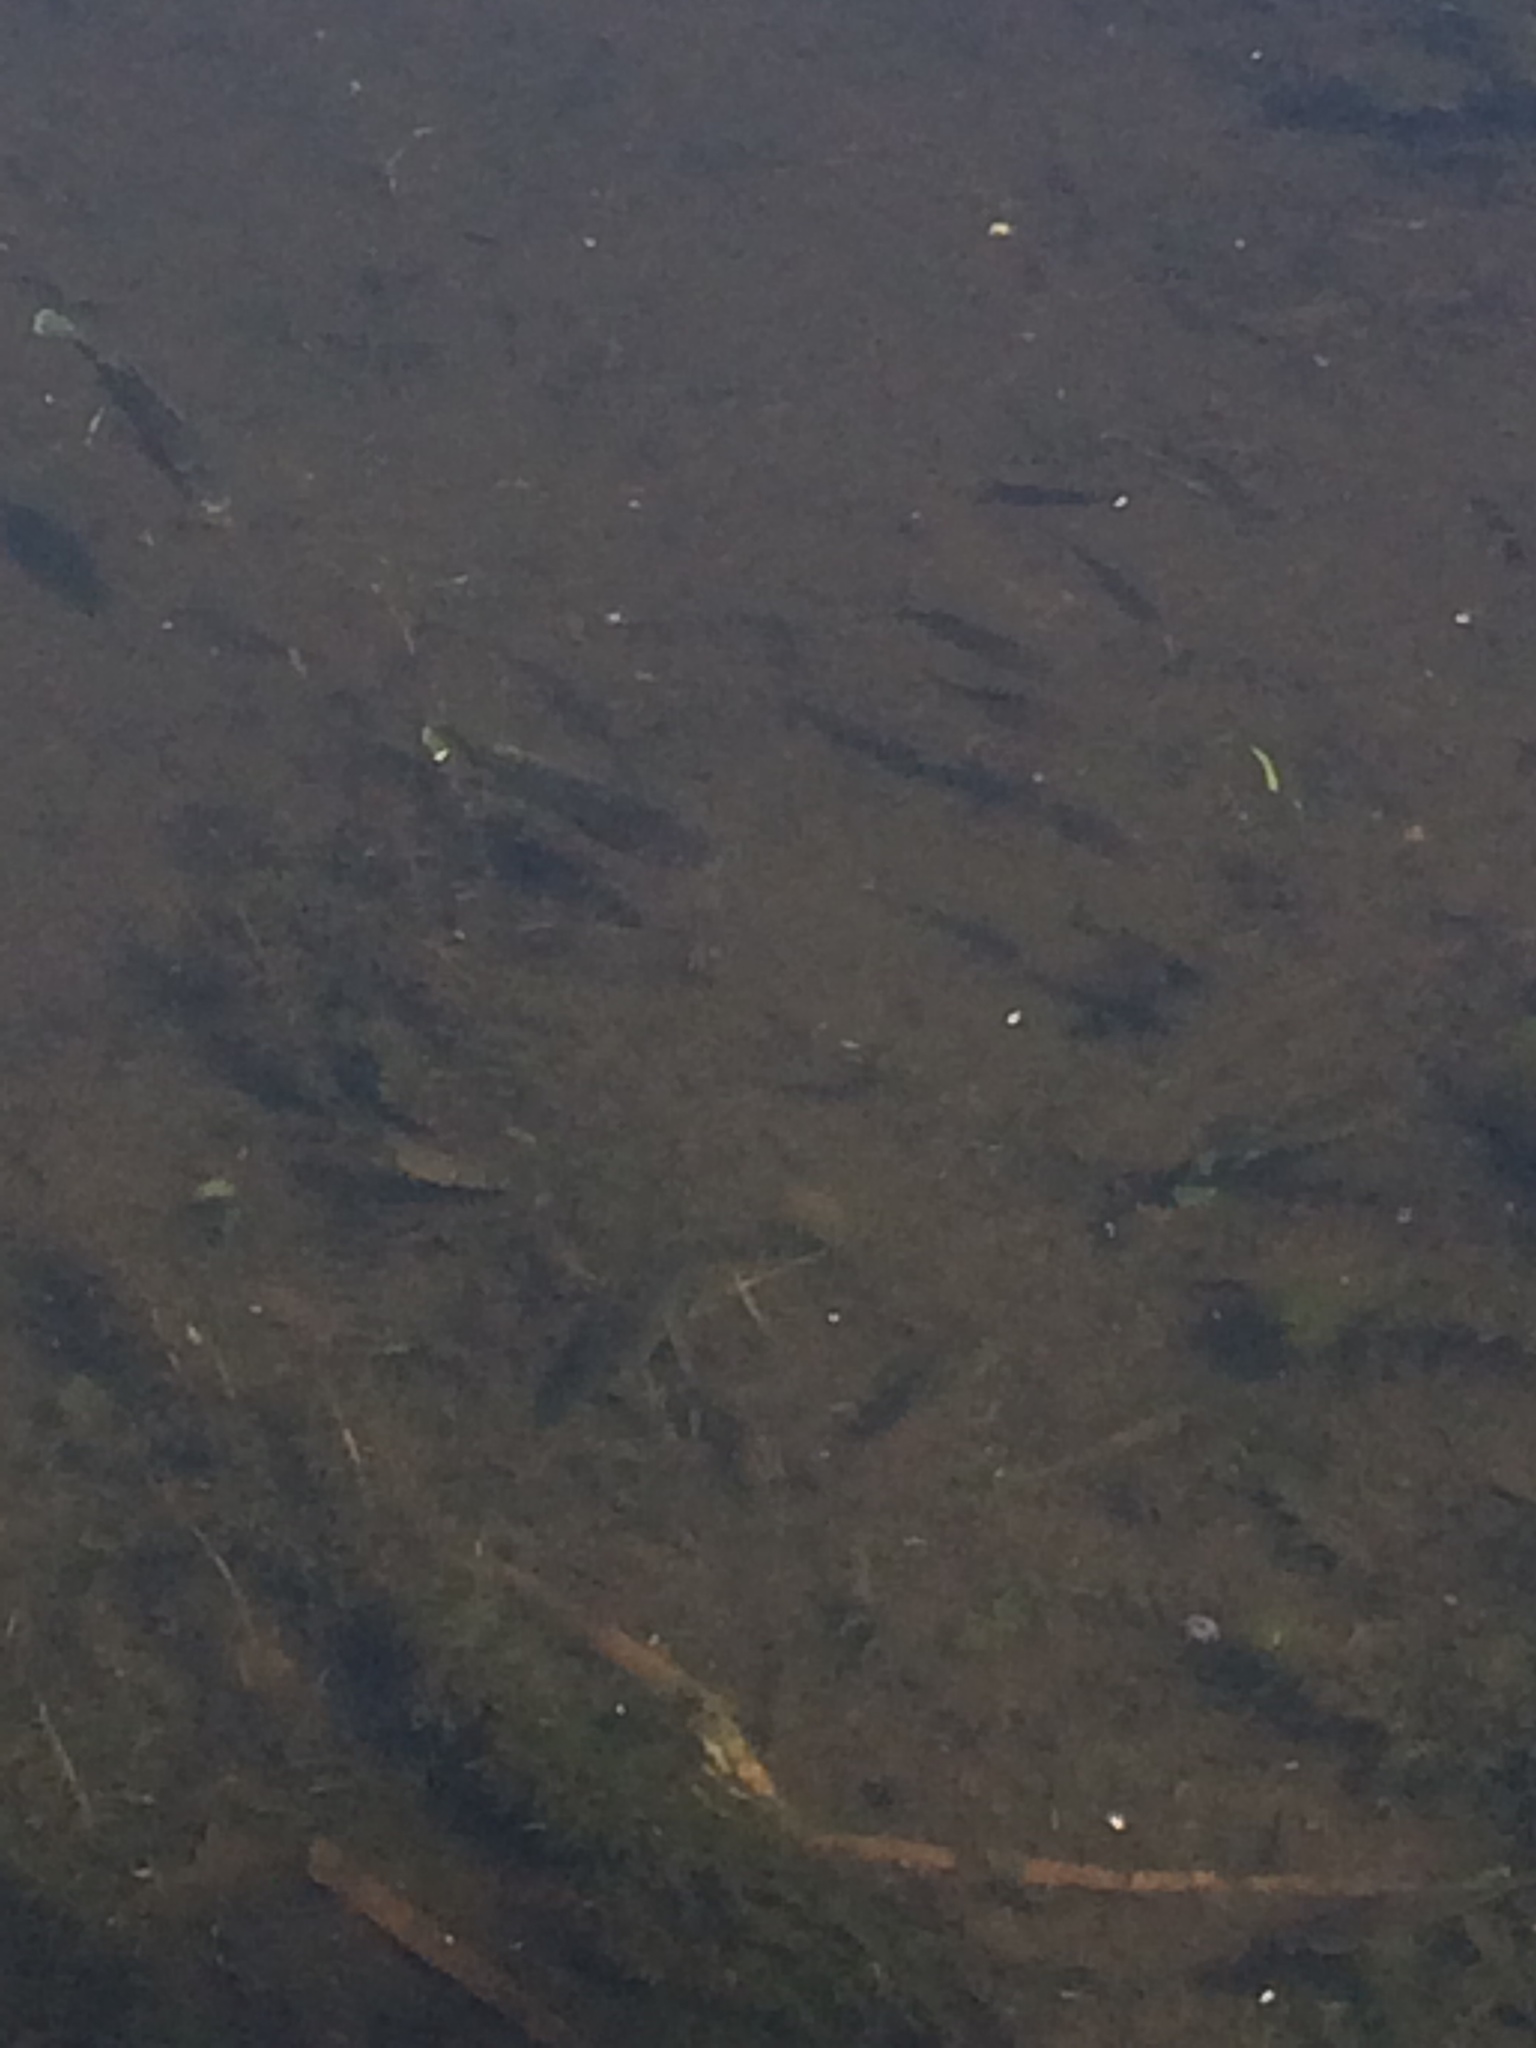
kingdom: Animalia
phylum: Chordata
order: Perciformes
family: Centrarchidae
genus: Lepomis
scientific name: Lepomis
